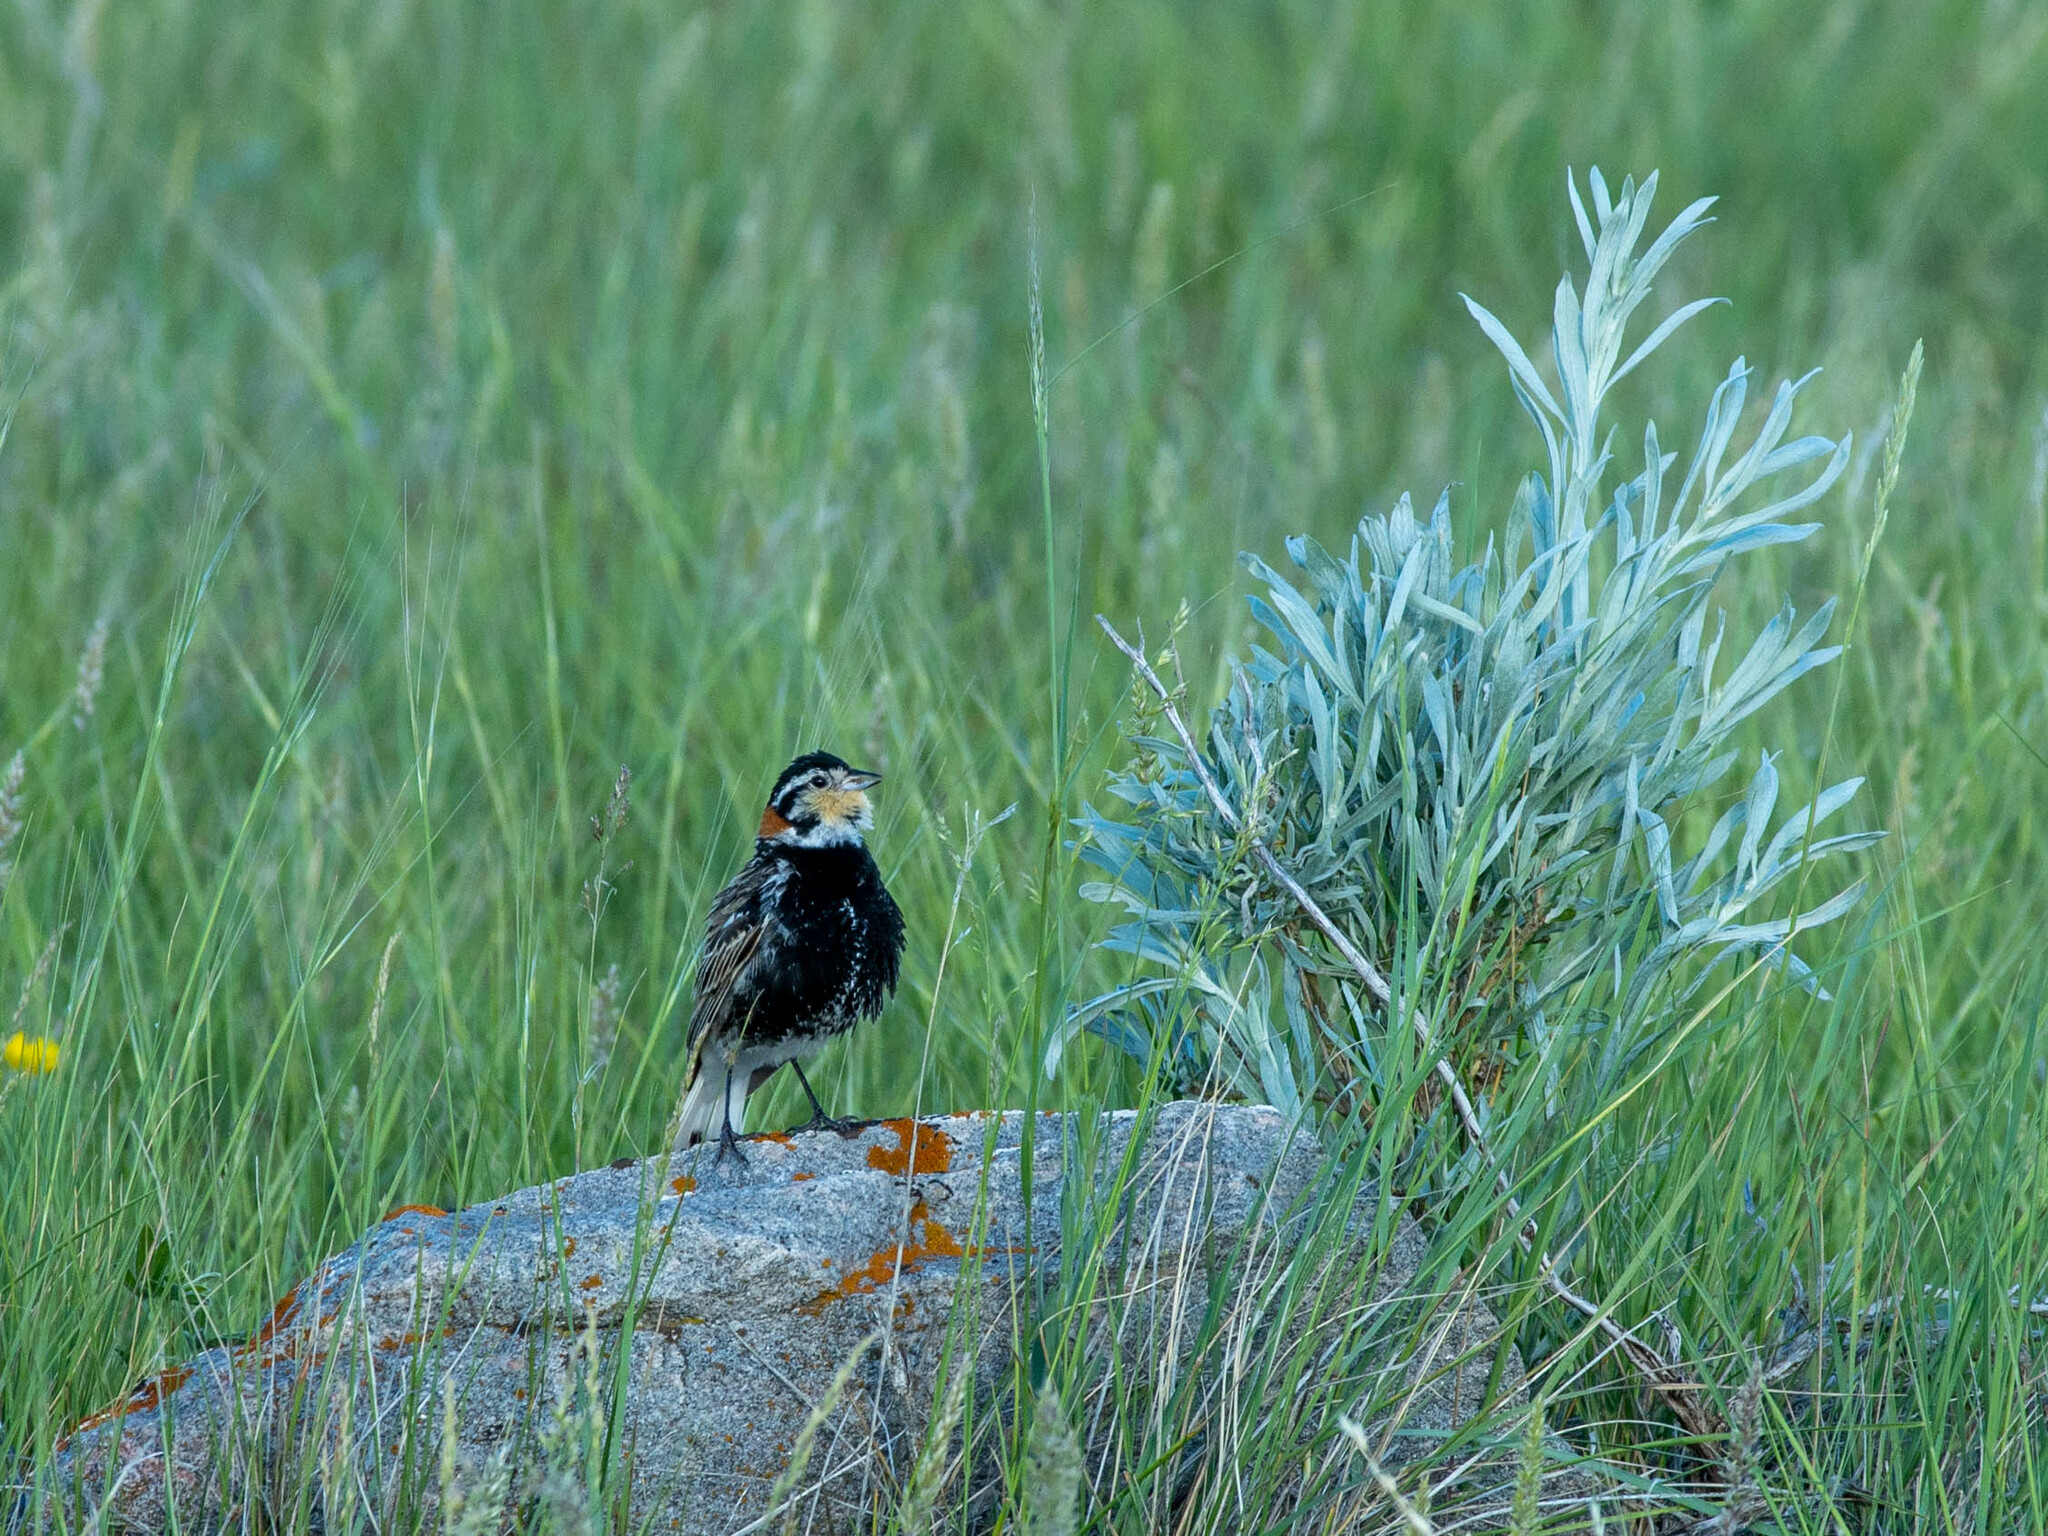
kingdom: Animalia
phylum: Chordata
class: Aves
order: Passeriformes
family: Calcariidae
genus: Calcarius
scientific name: Calcarius ornatus
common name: Chestnut-collared longspur
